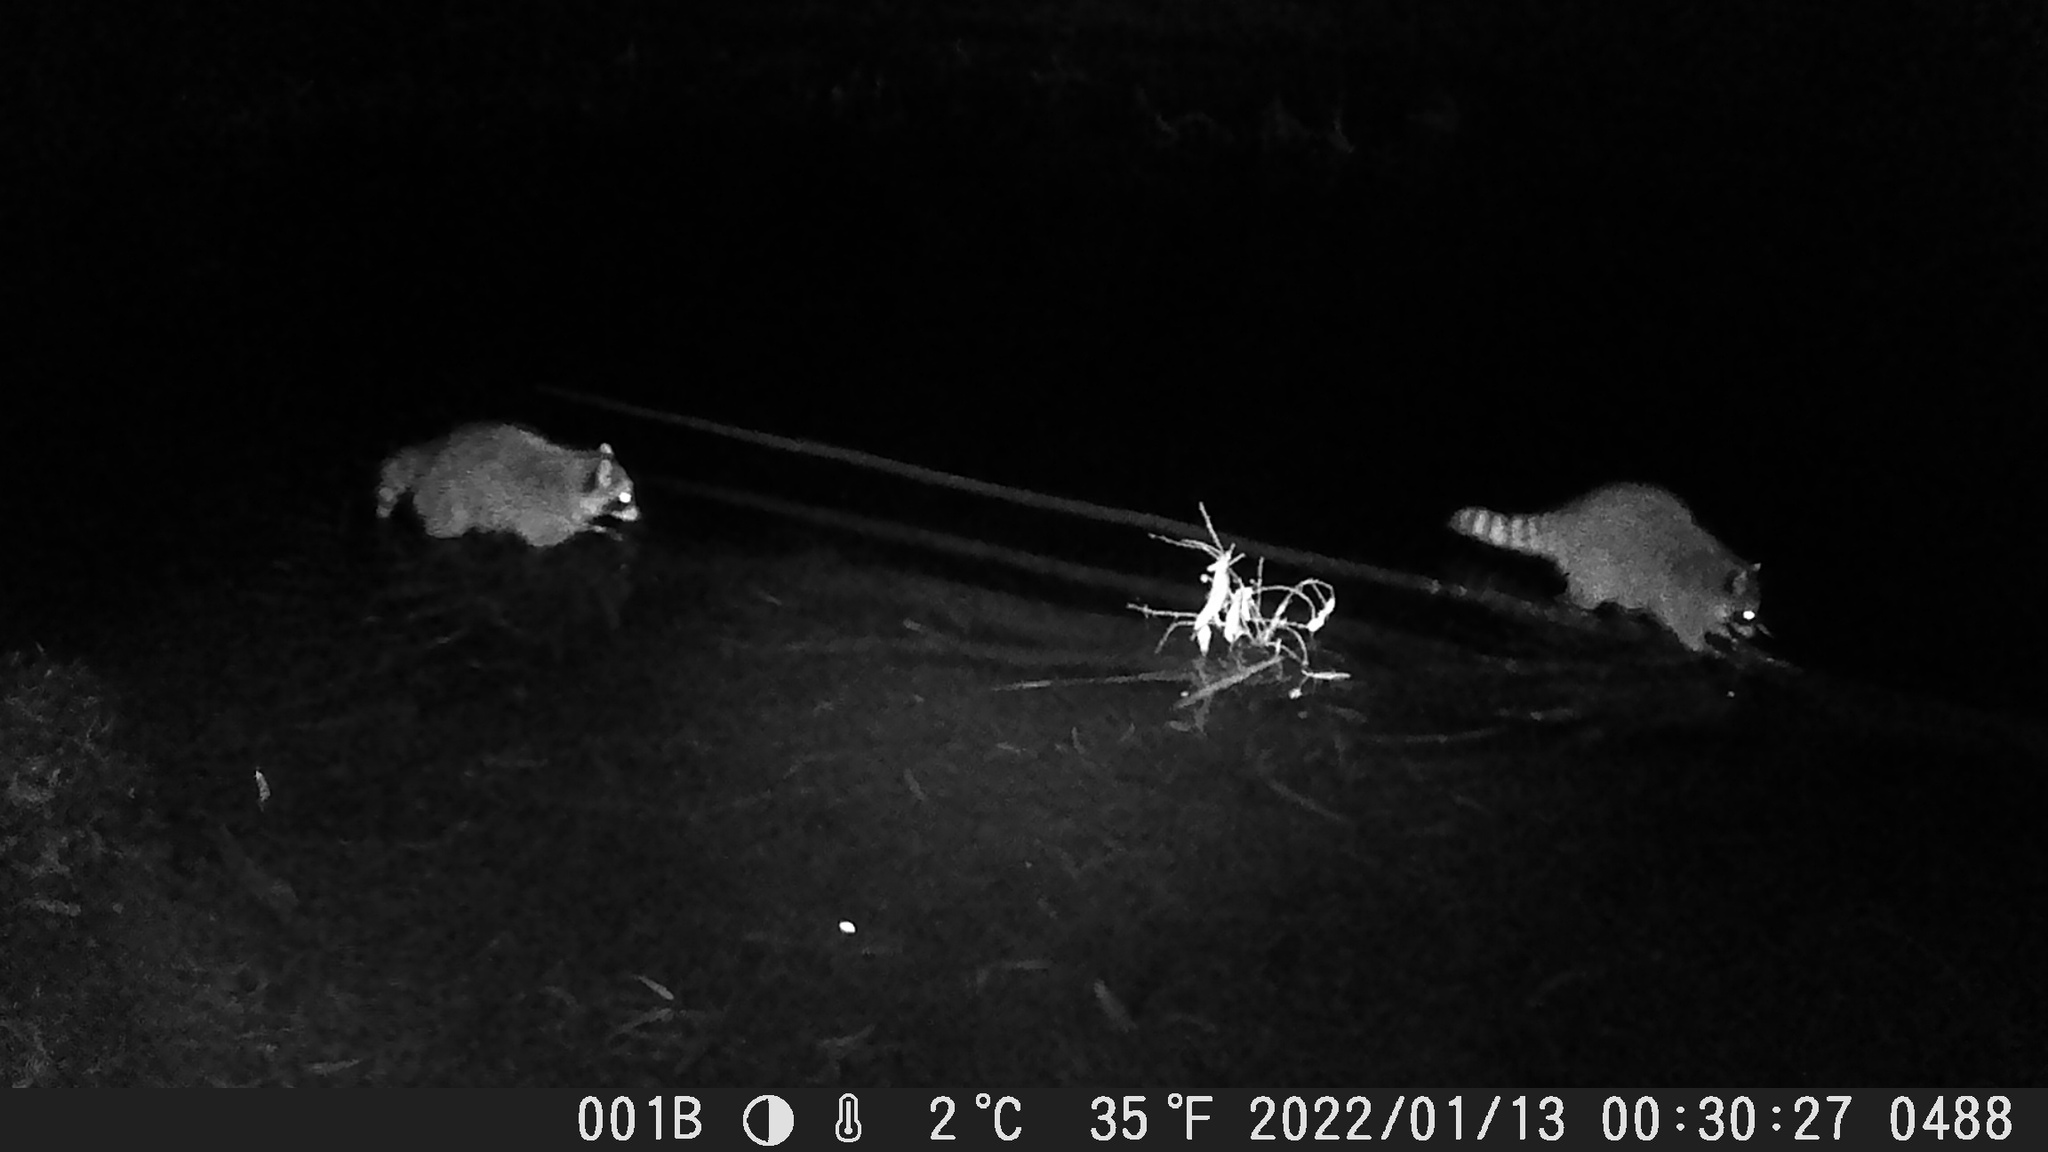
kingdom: Animalia
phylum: Chordata
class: Mammalia
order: Carnivora
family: Procyonidae
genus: Procyon
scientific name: Procyon lotor
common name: Raccoon
